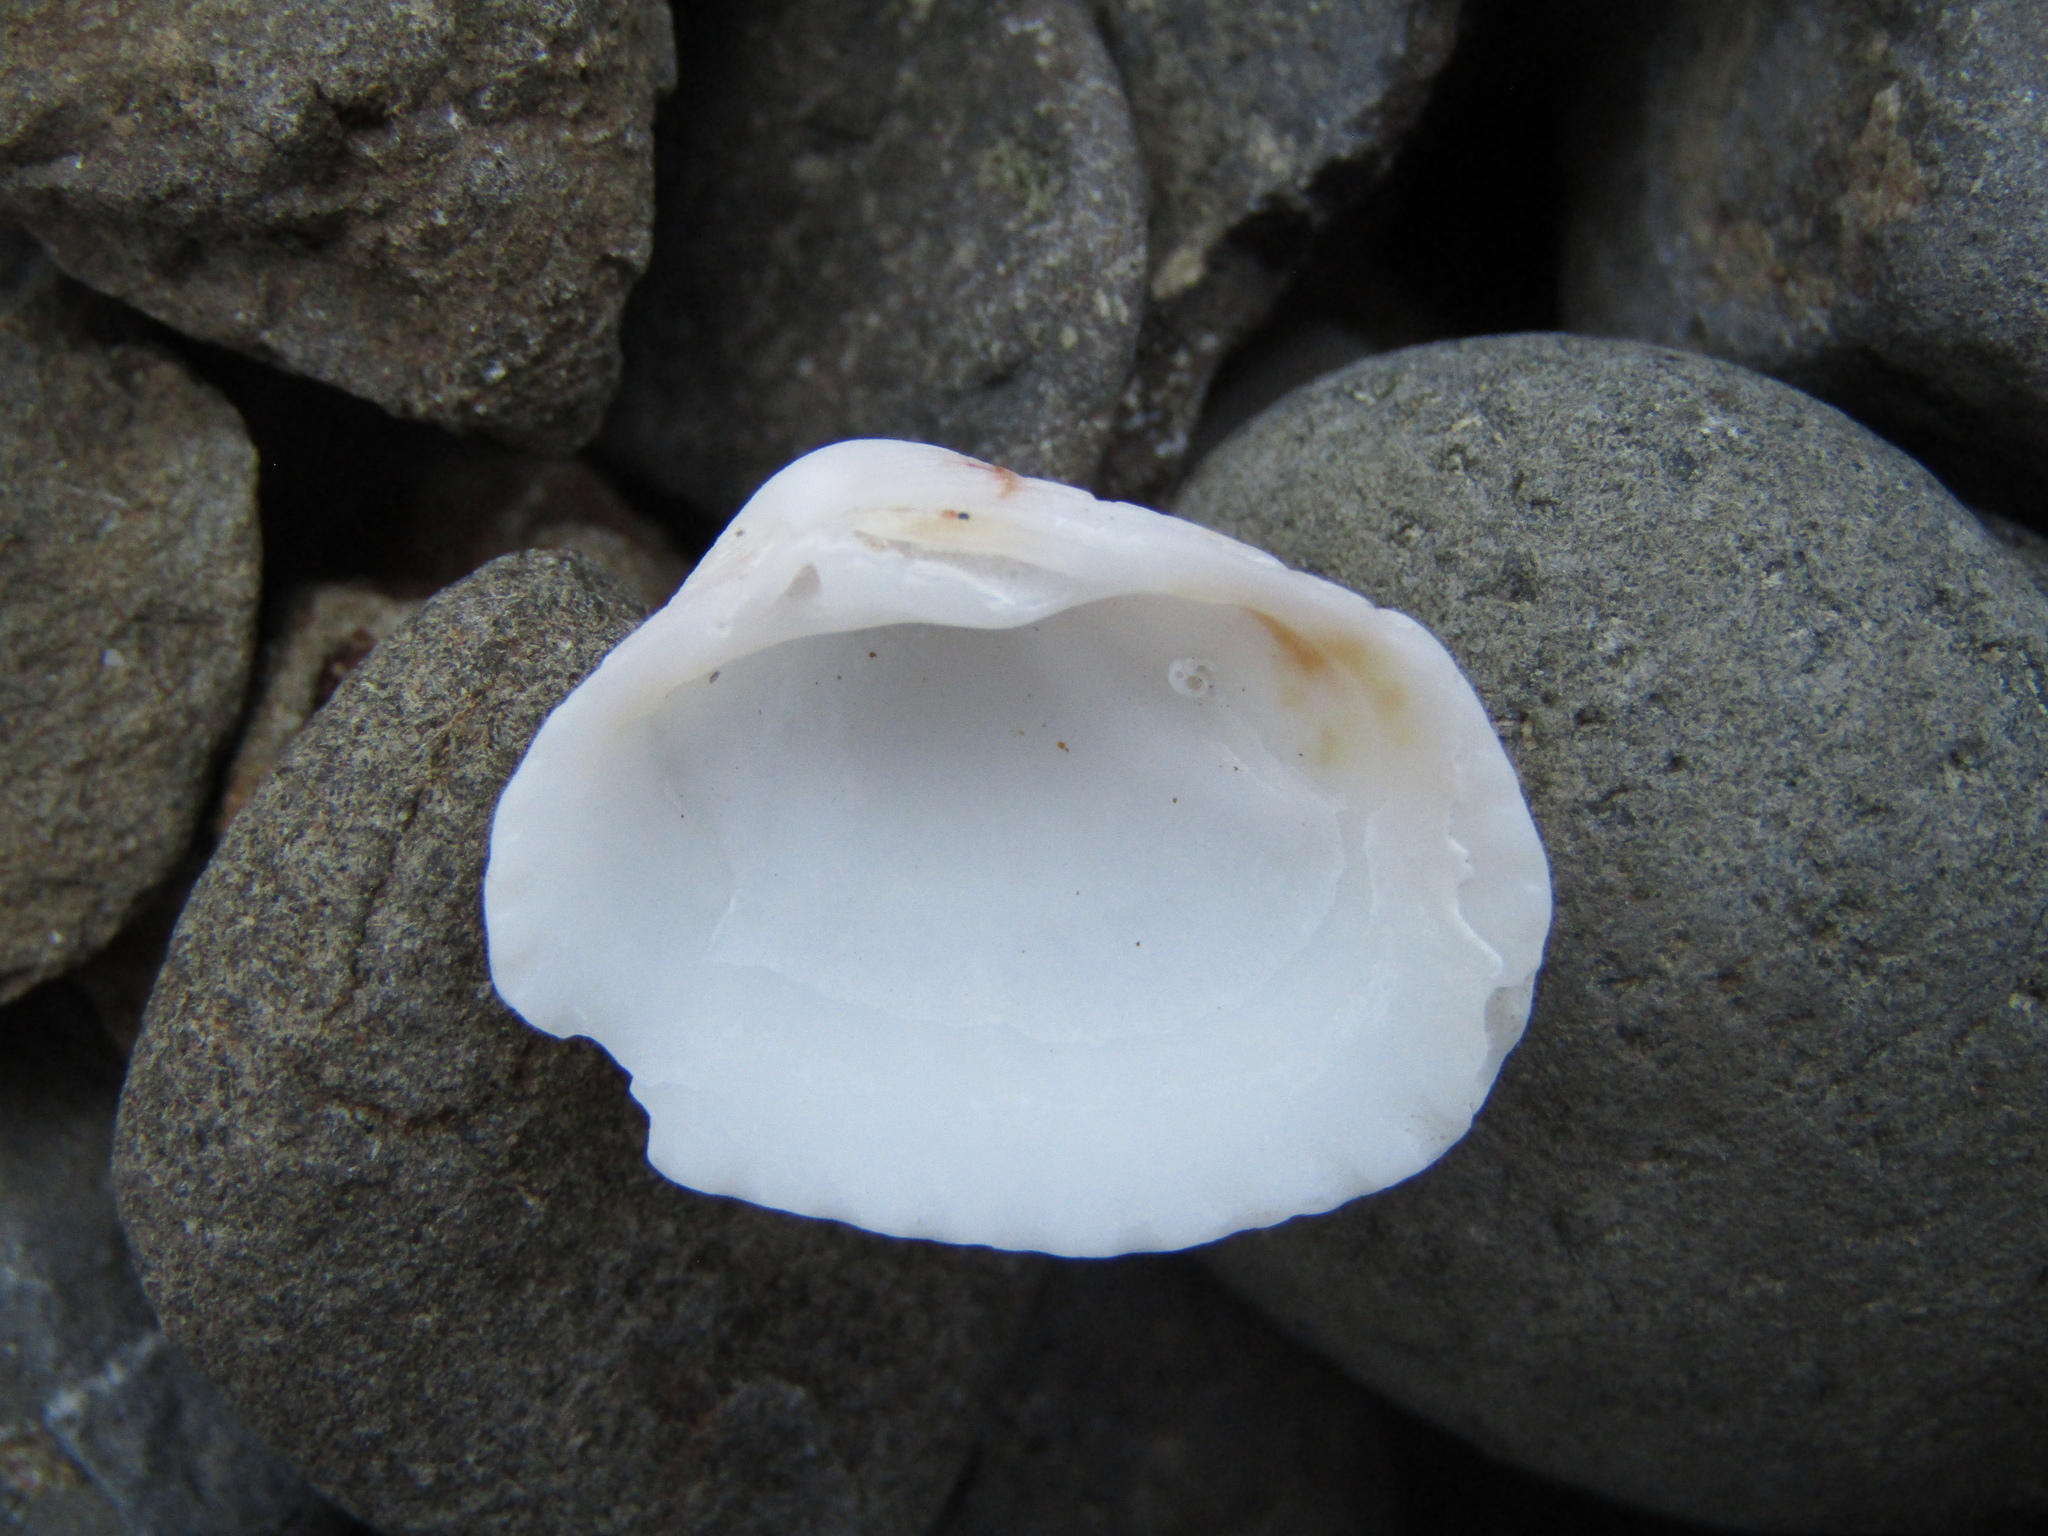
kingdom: Animalia
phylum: Mollusca
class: Bivalvia
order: Carditida
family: Carditidae
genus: Purpurocardia
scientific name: Purpurocardia reinga
